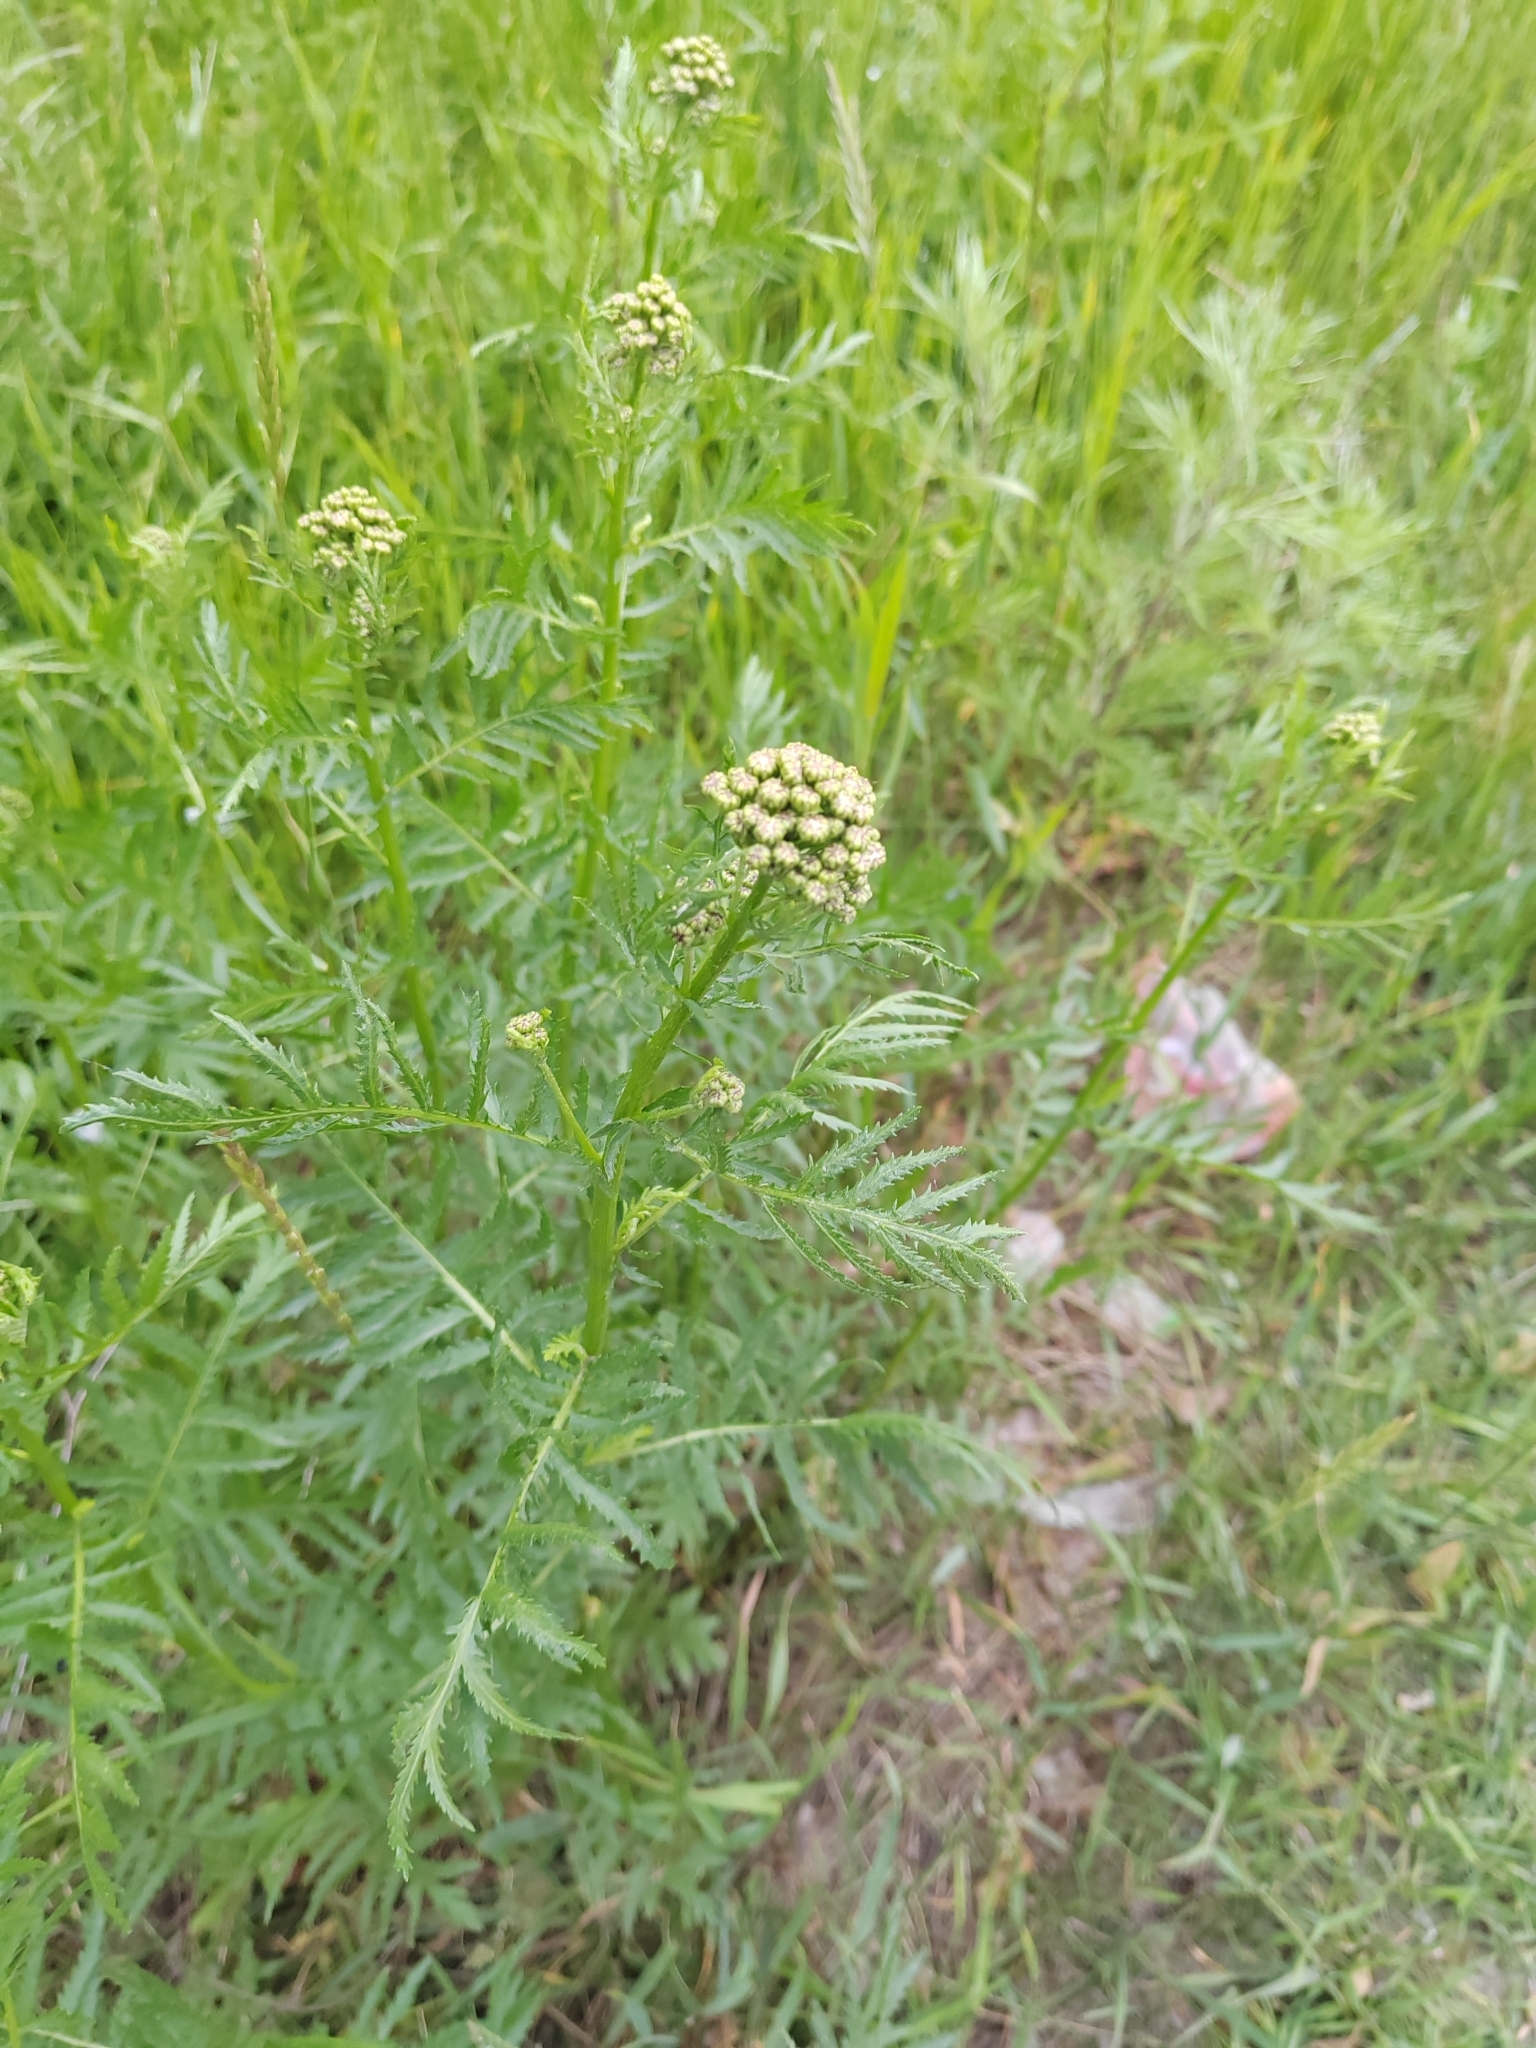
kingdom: Plantae
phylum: Tracheophyta
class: Magnoliopsida
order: Asterales
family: Asteraceae
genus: Tanacetum
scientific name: Tanacetum vulgare
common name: Common tansy
